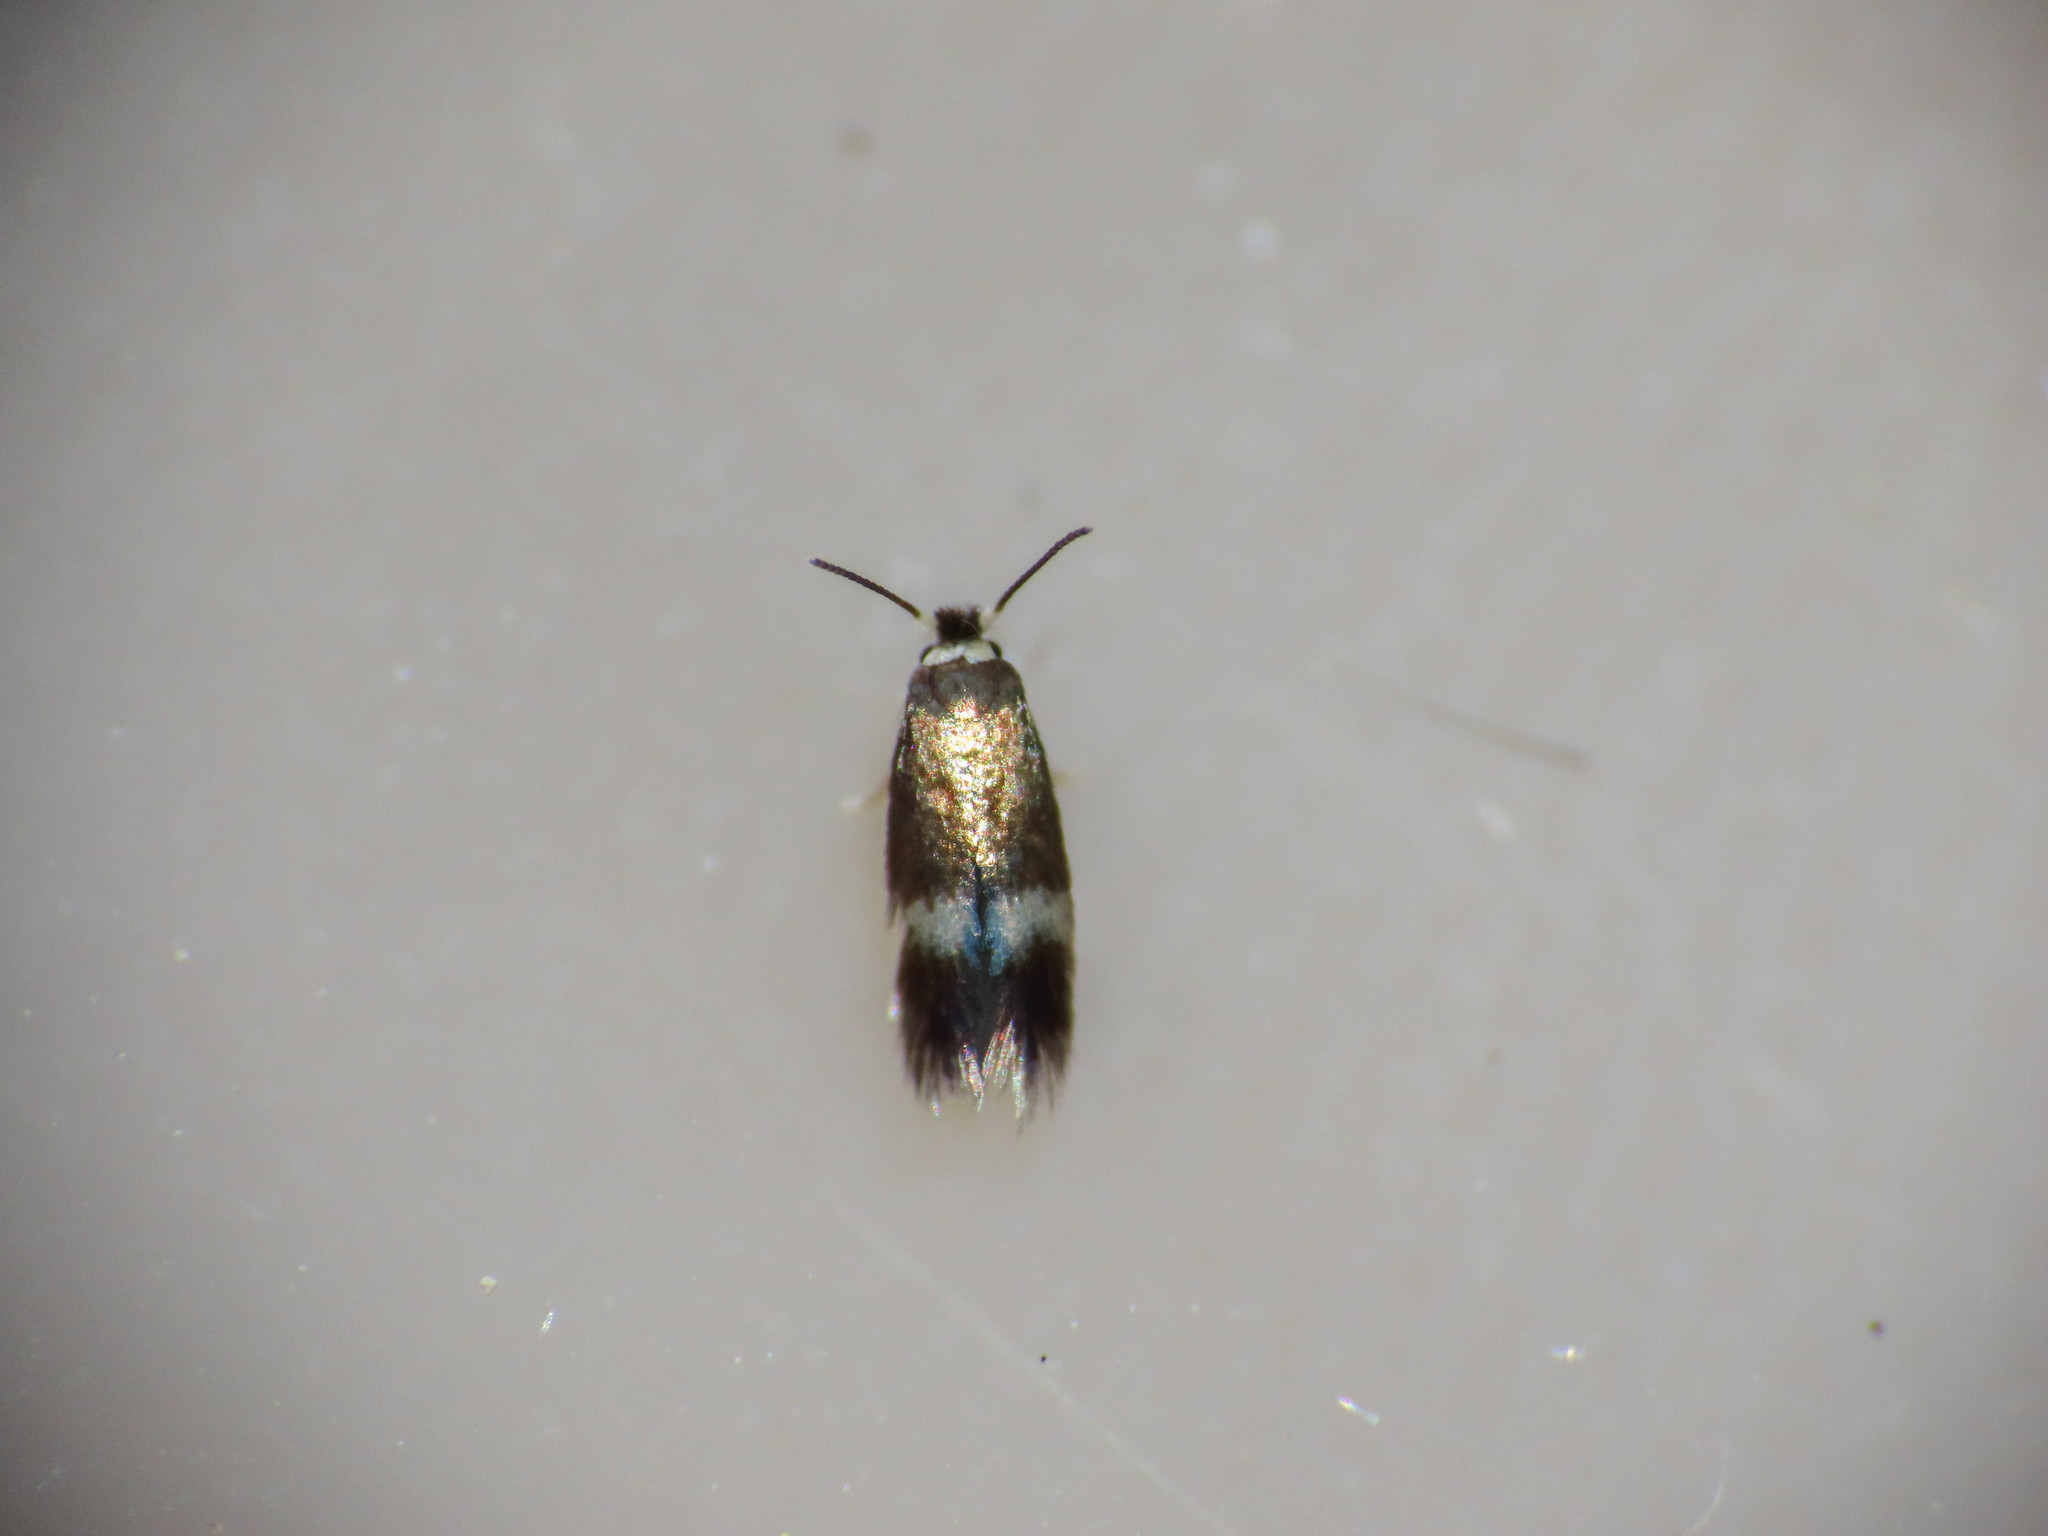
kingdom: Animalia
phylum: Arthropoda
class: Insecta
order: Lepidoptera
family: Nepticulidae
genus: Stigmella
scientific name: Stigmella aceris
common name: Scarce maple pigmy
